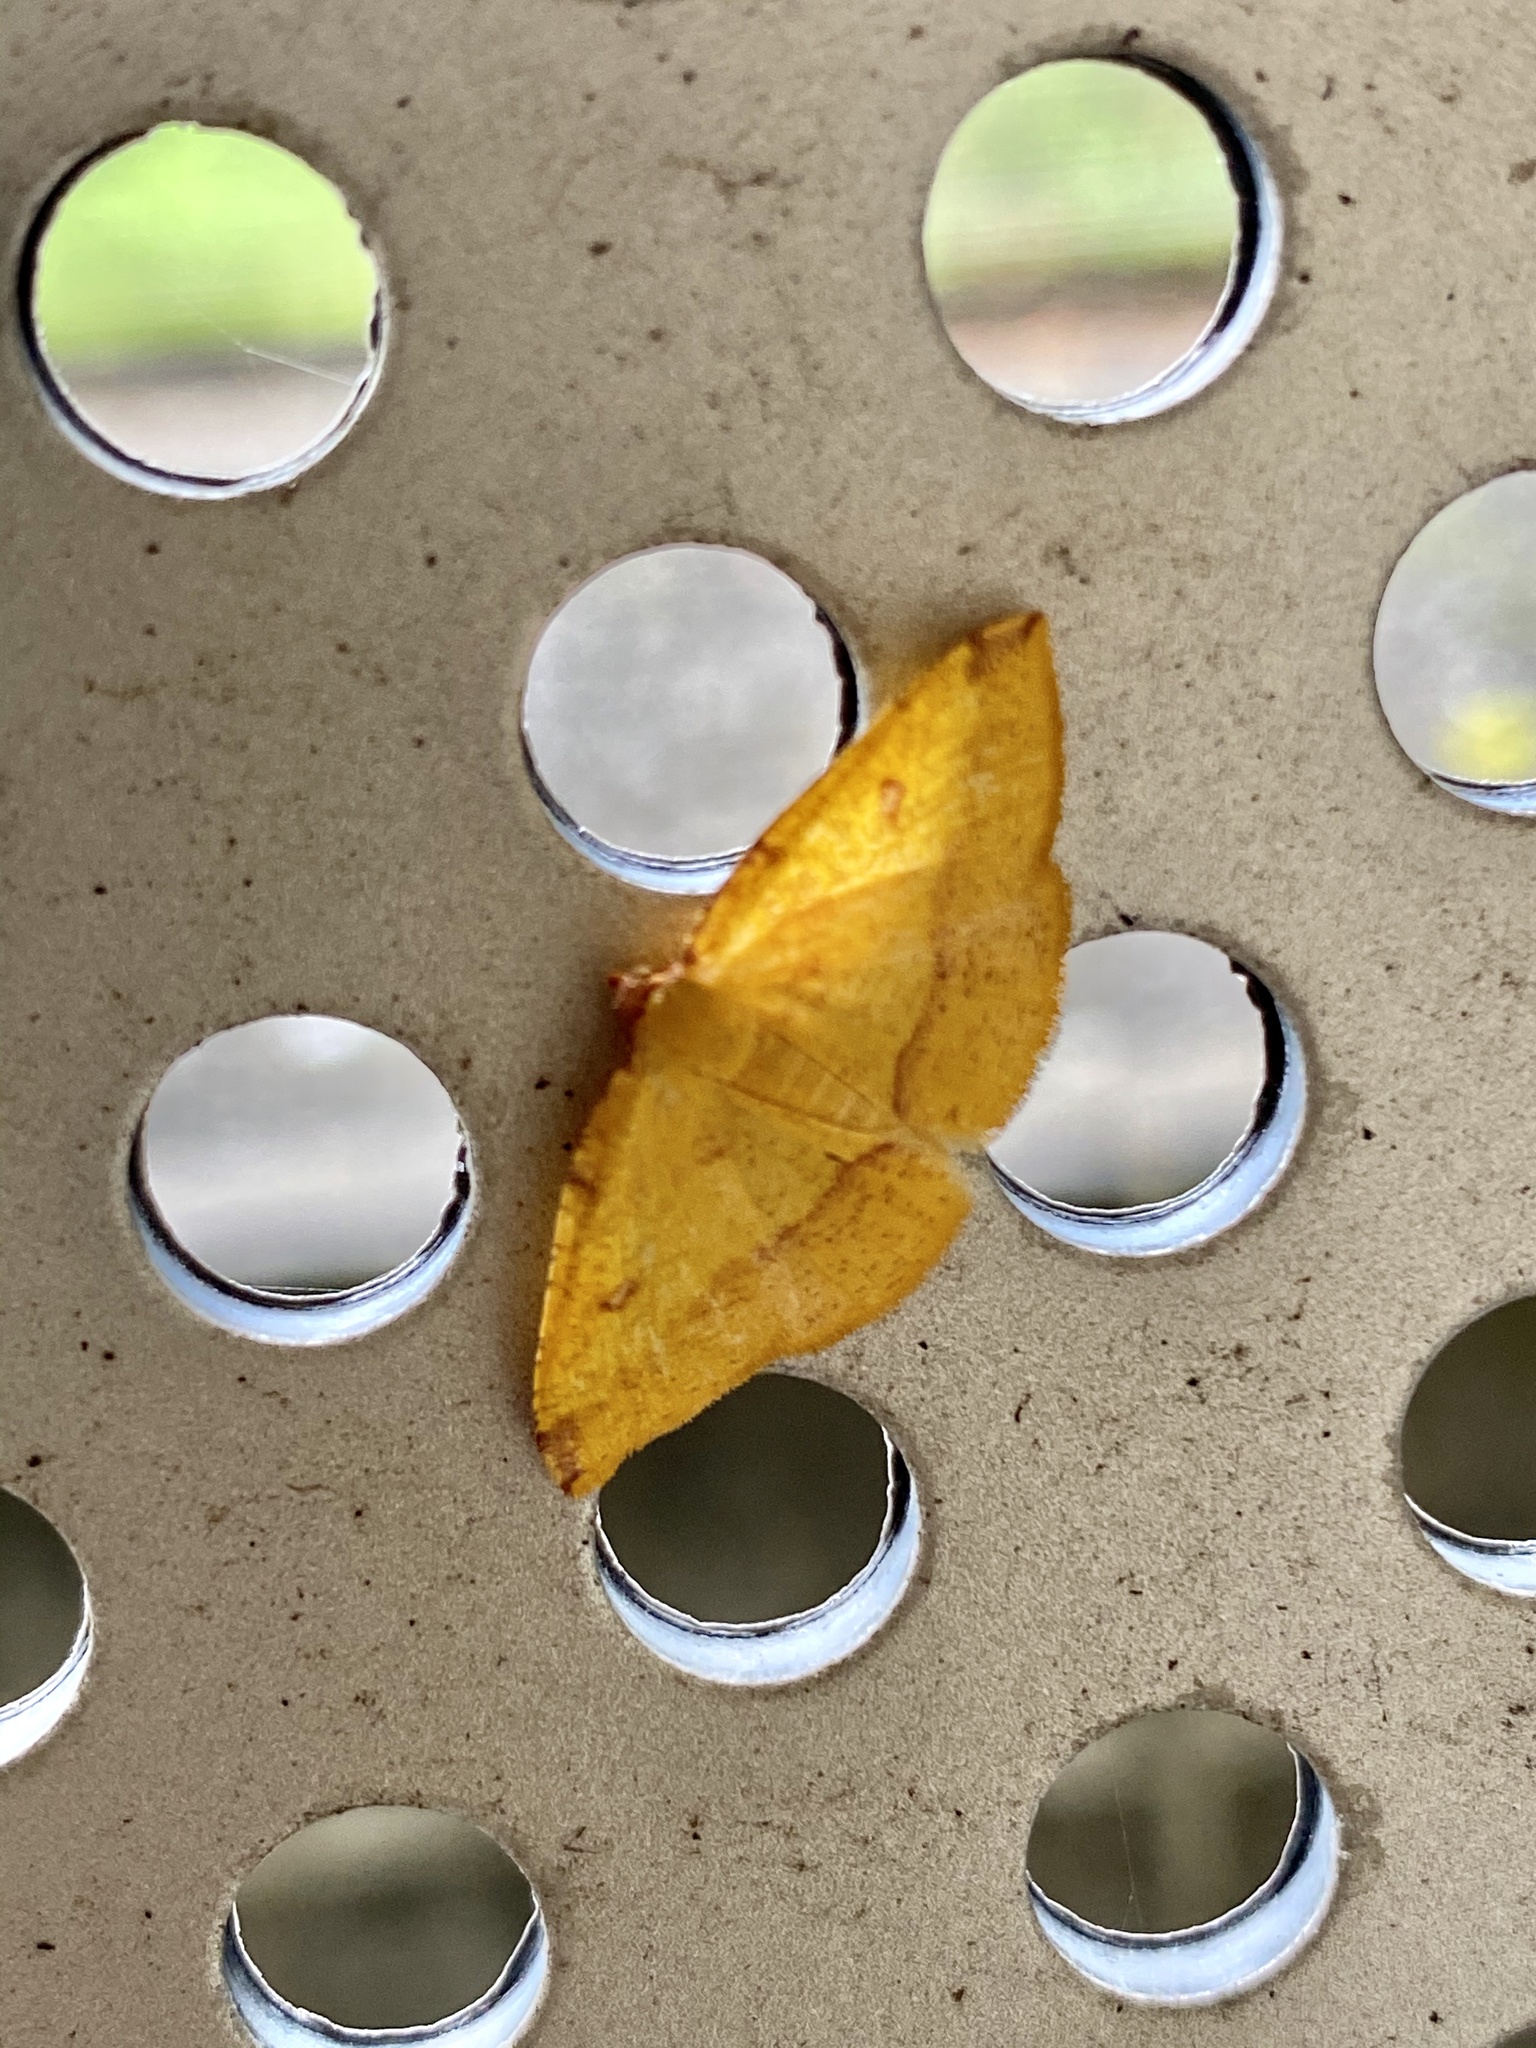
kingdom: Animalia
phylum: Arthropoda
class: Insecta
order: Lepidoptera
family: Geometridae
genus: Heterolocha
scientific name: Heterolocha aristonaria
